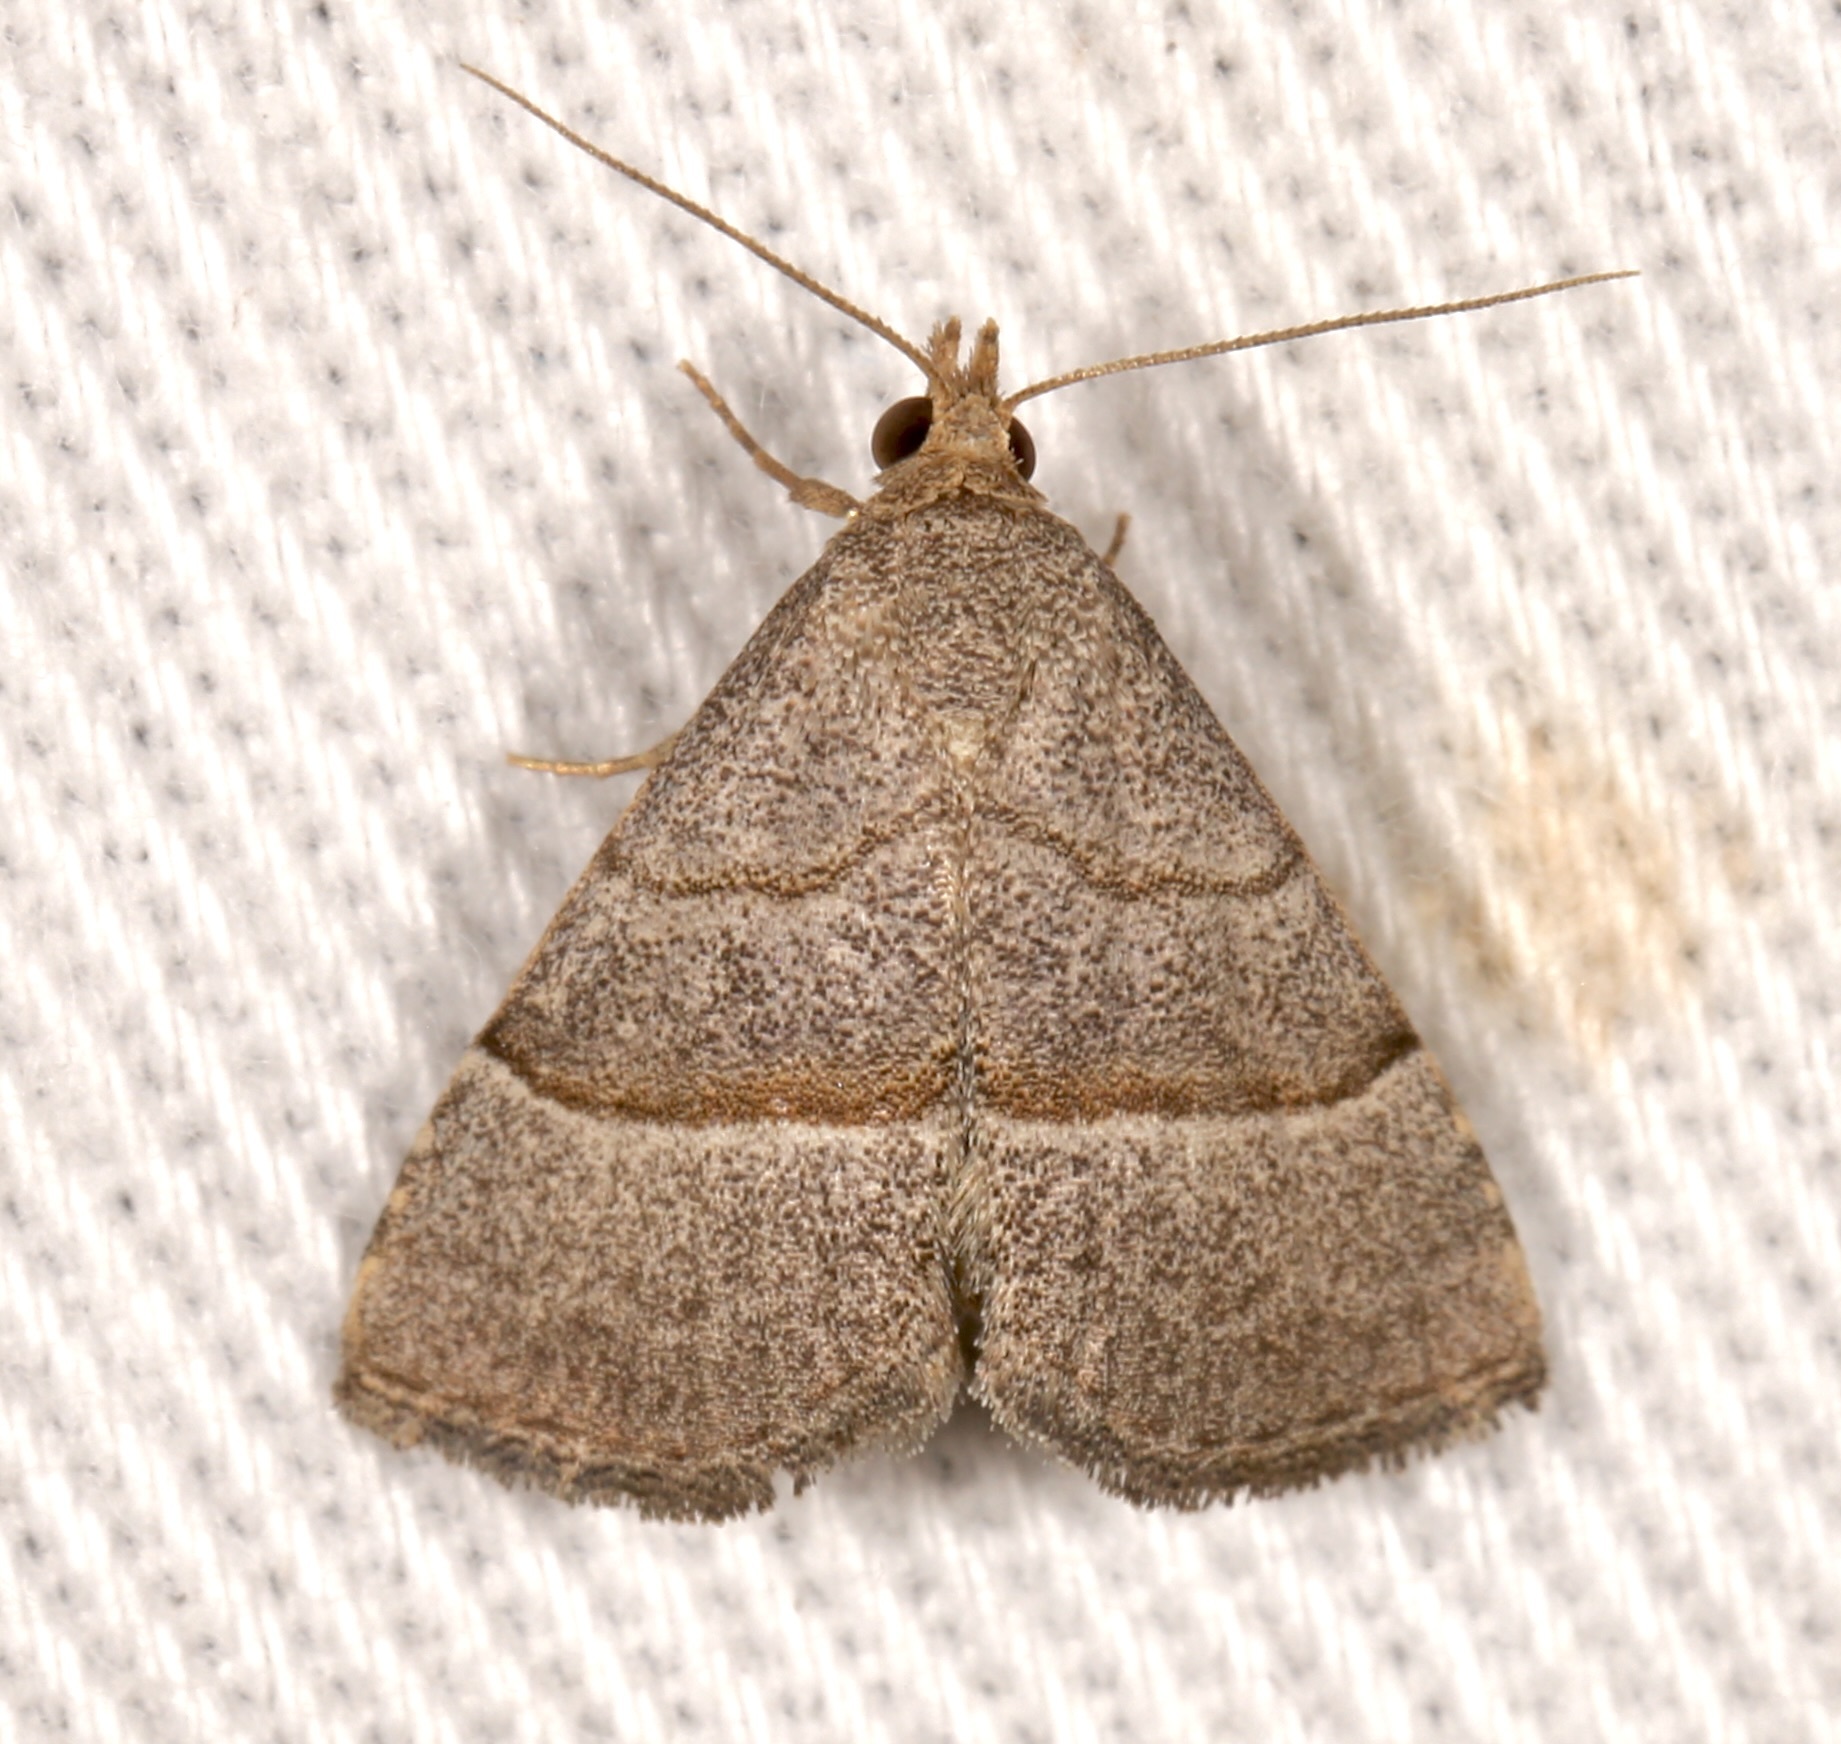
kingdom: Animalia
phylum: Arthropoda
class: Insecta
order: Lepidoptera
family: Erebidae
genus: Zelicodes
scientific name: Zelicodes linearis
